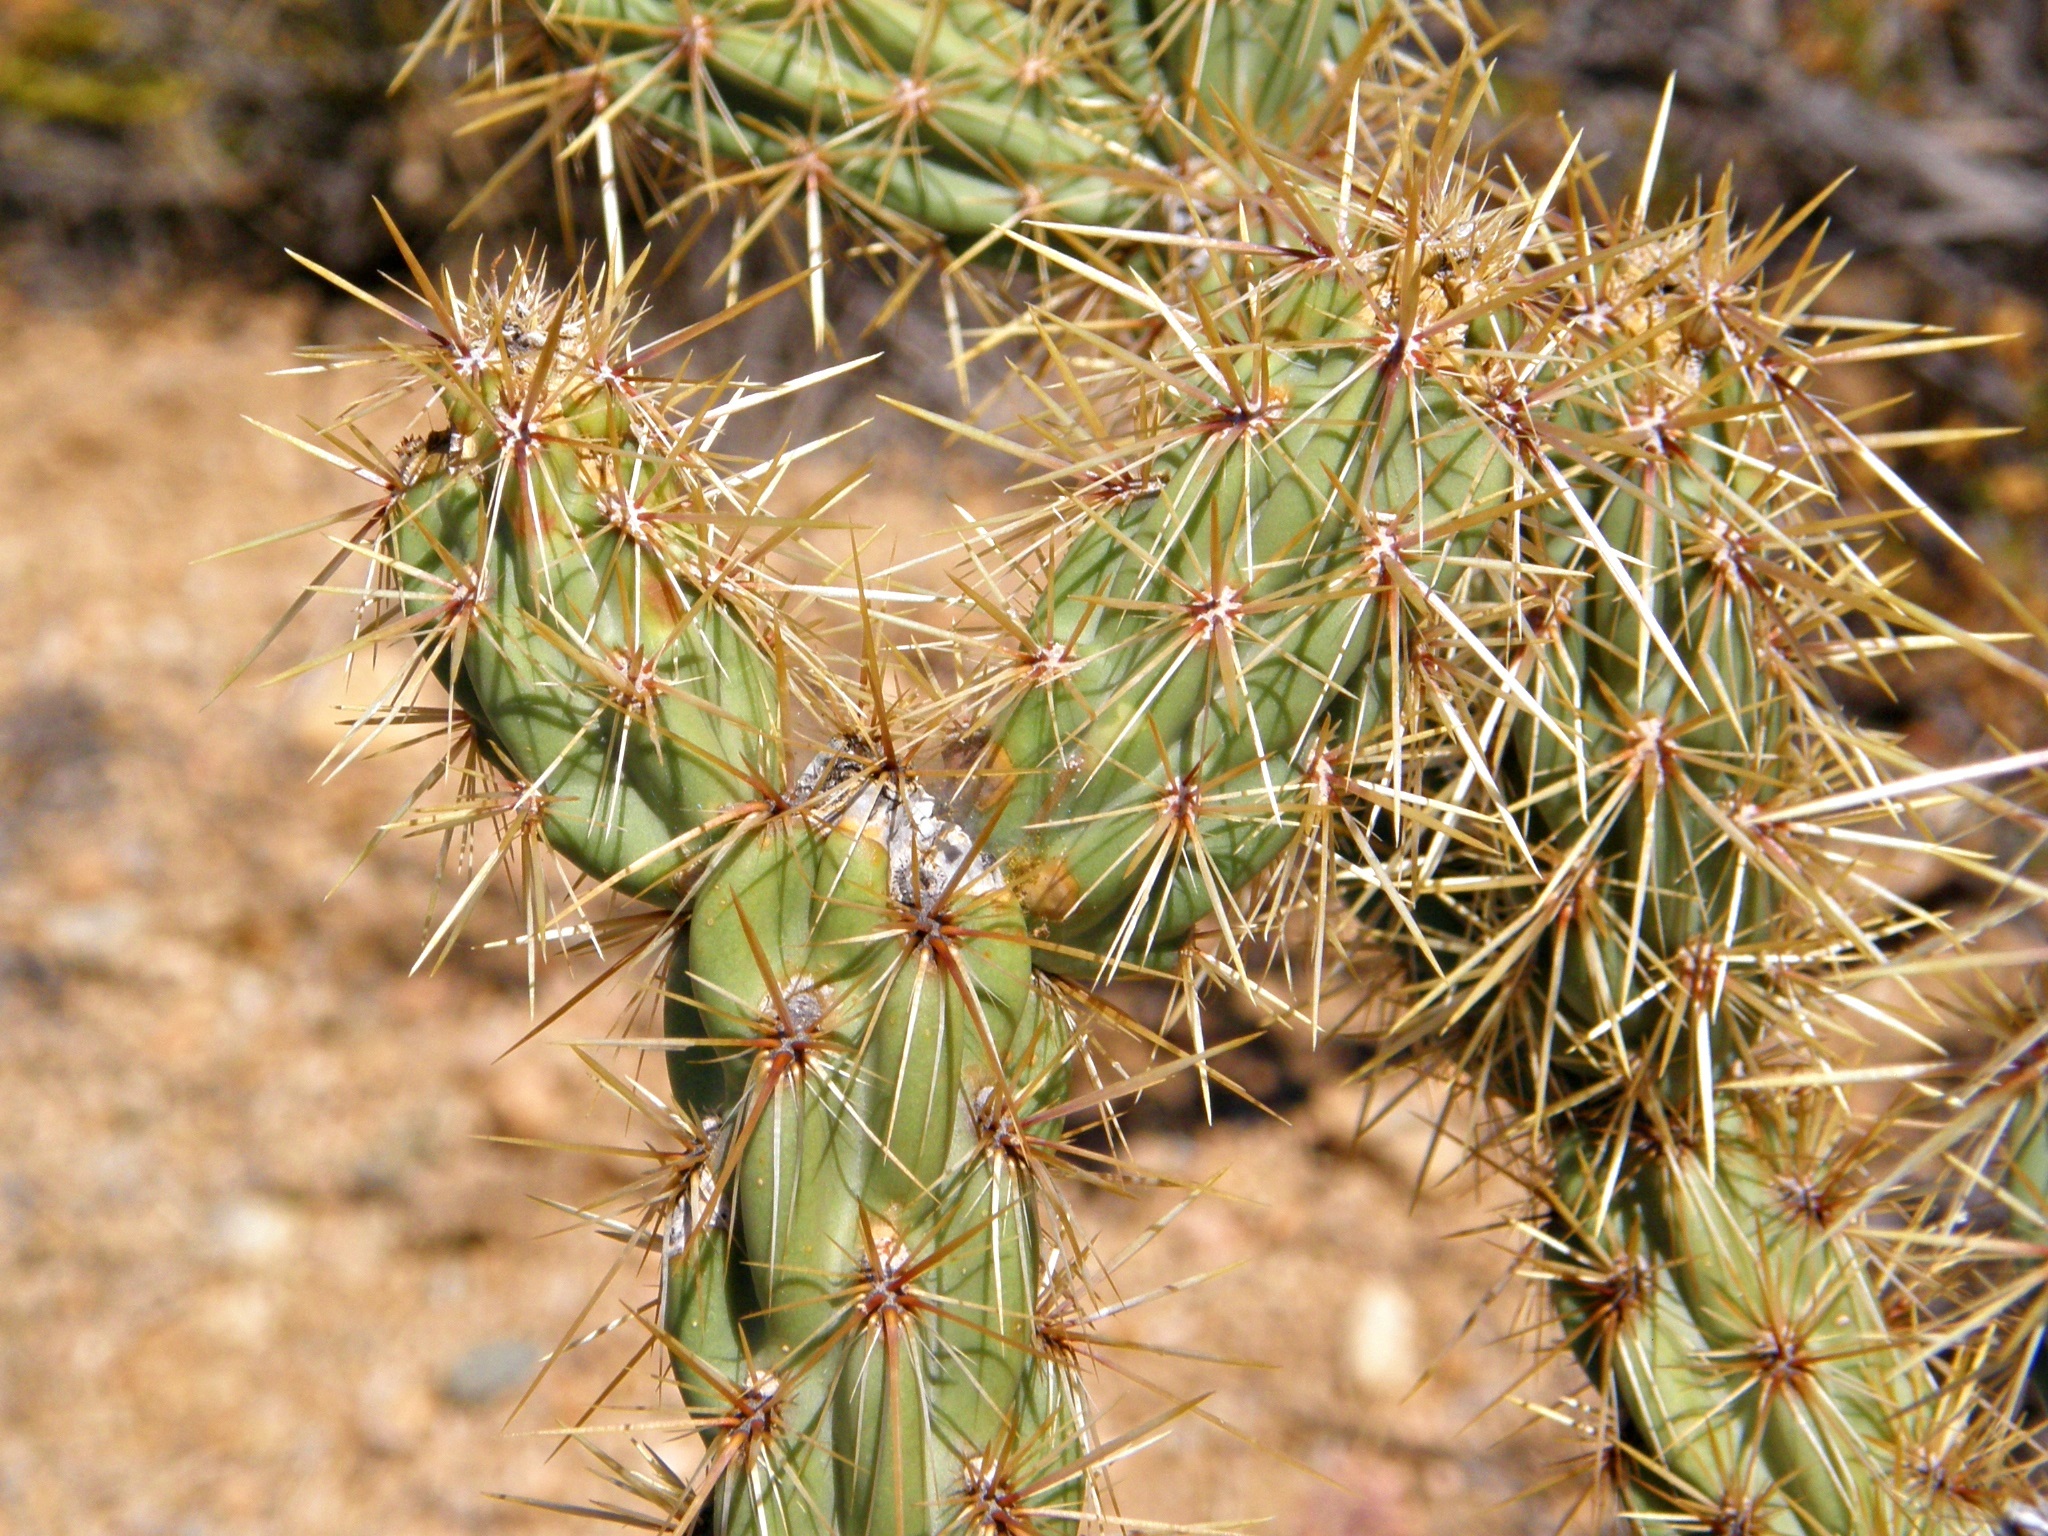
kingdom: Plantae
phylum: Tracheophyta
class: Magnoliopsida
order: Caryophyllales
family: Cactaceae
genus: Cylindropuntia
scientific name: Cylindropuntia acanthocarpa
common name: Buckhorn cholla
